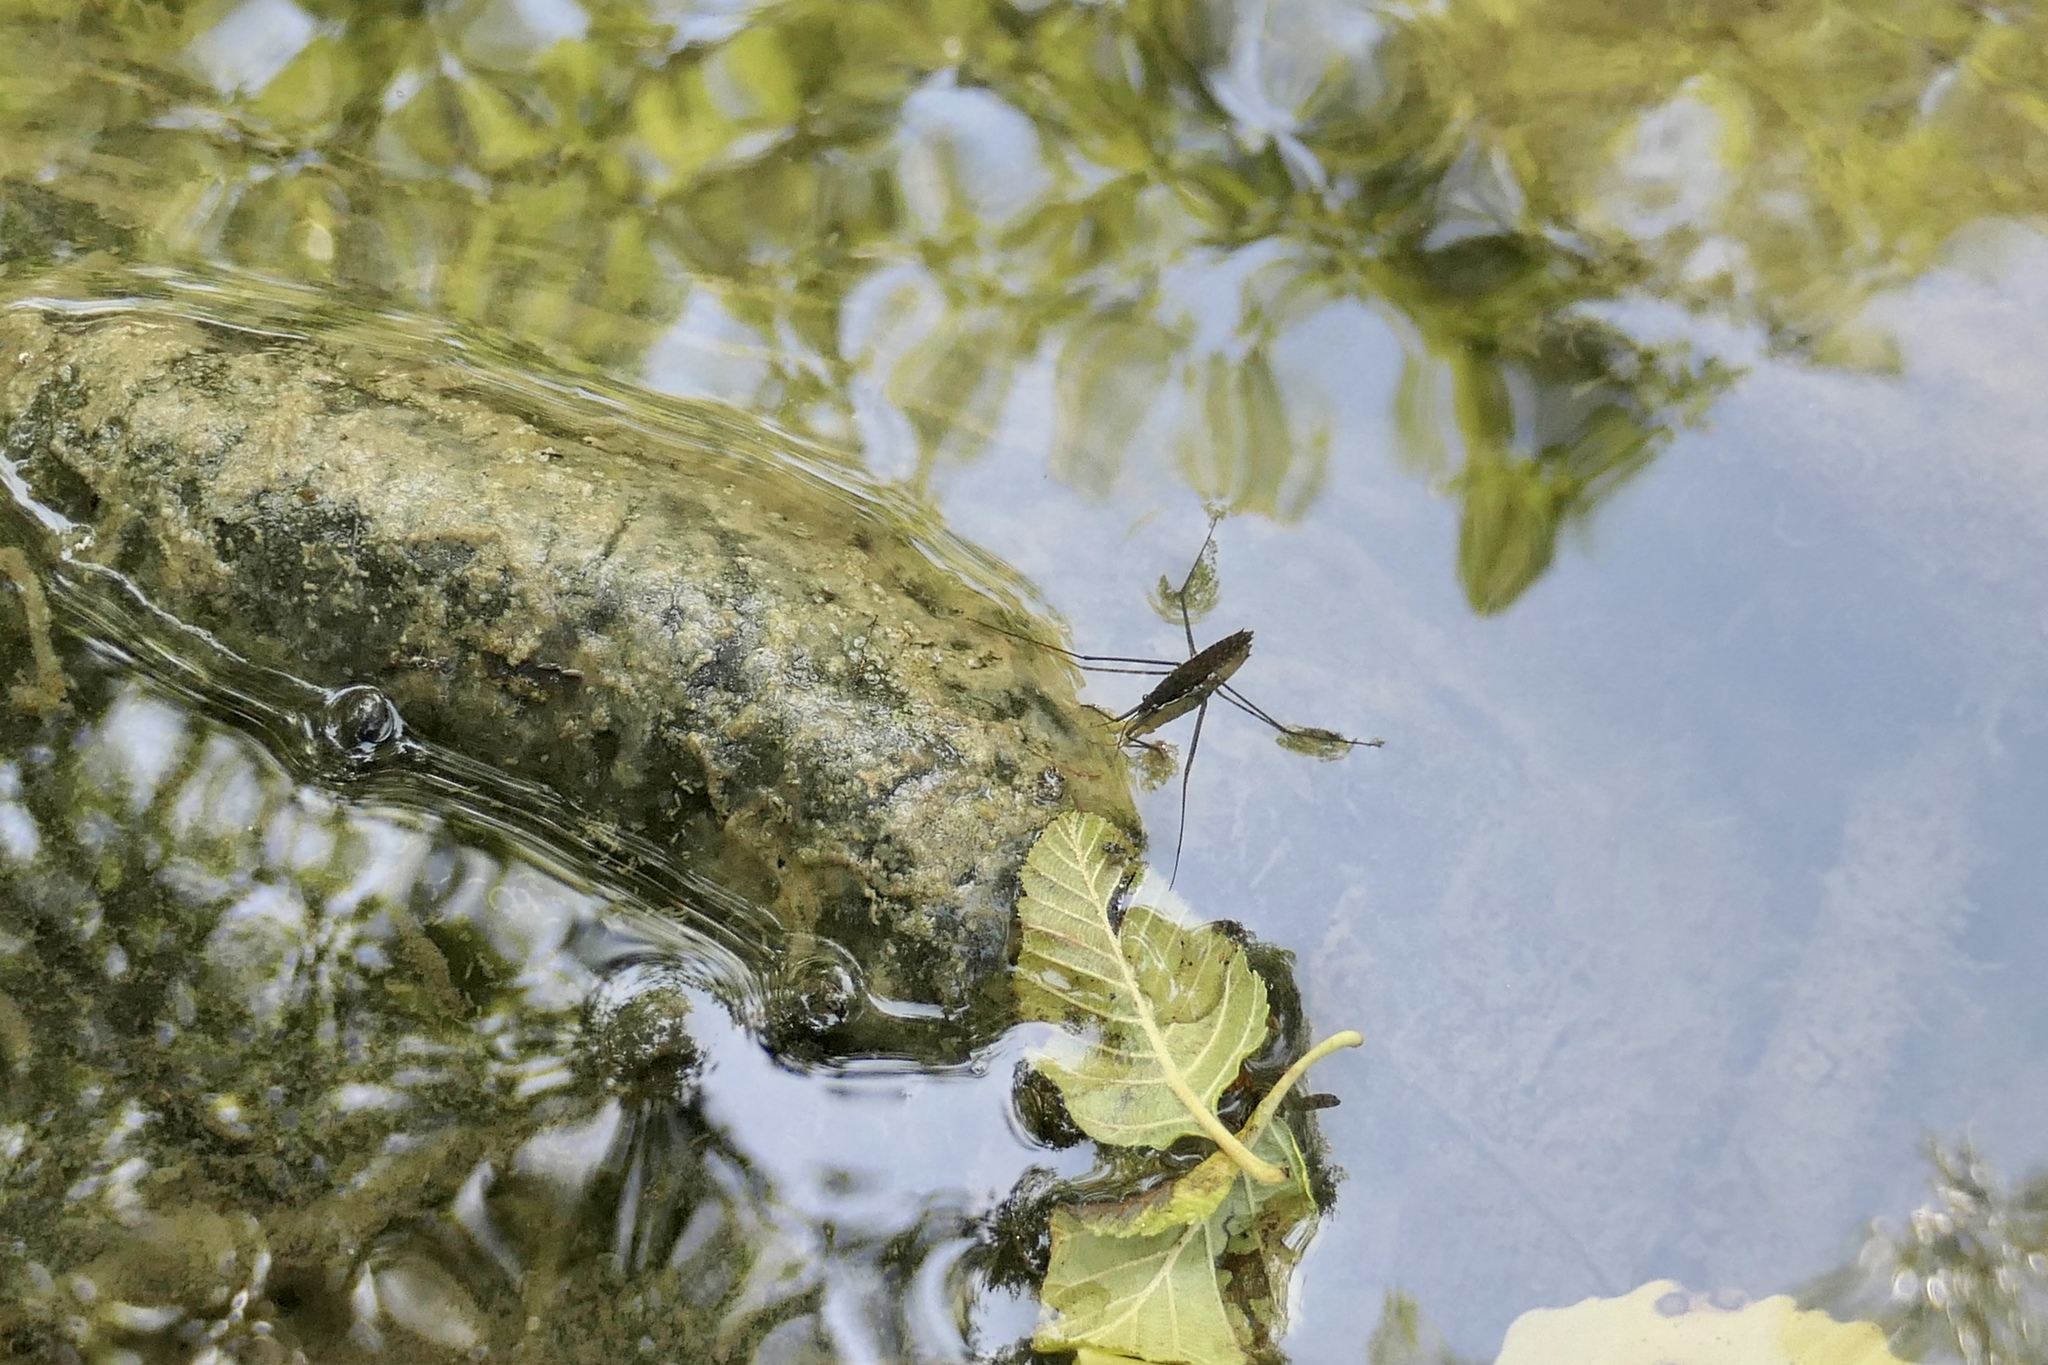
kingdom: Animalia
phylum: Arthropoda
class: Insecta
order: Hemiptera
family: Gerridae
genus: Aquarius
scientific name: Aquarius remigis
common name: Common water strider
